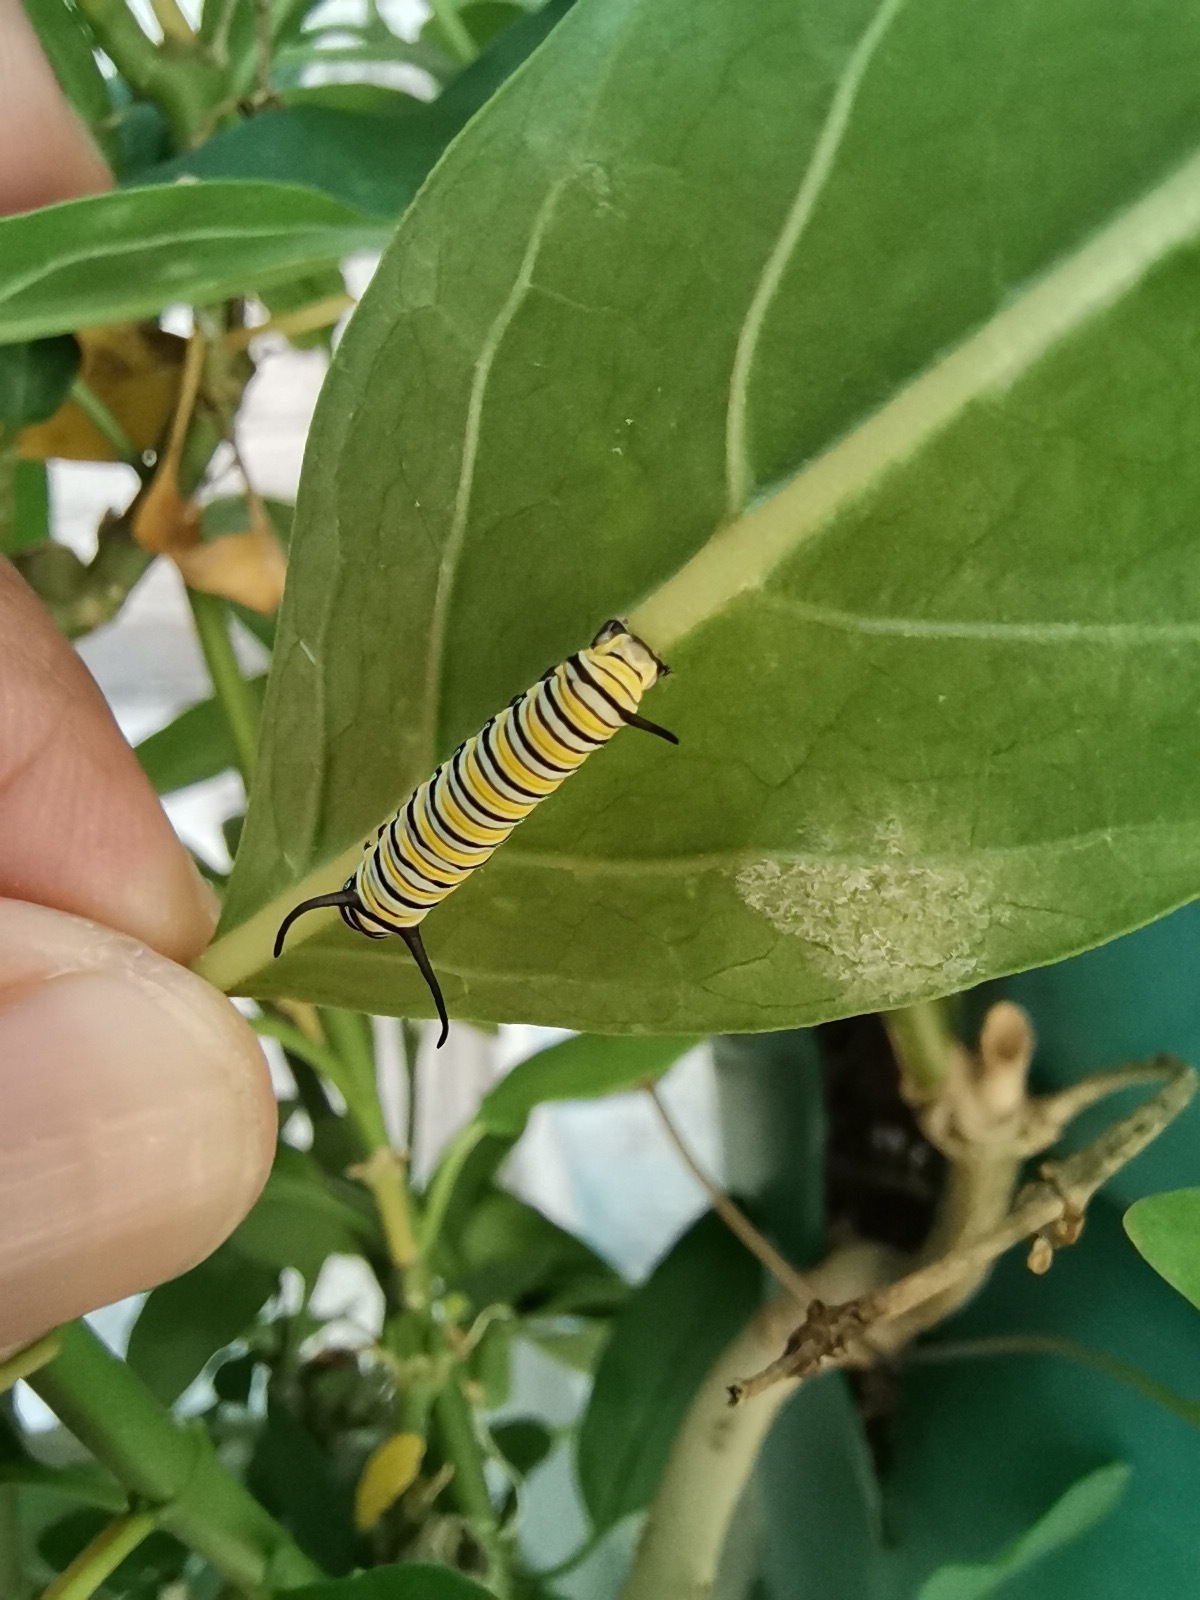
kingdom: Animalia
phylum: Arthropoda
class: Insecta
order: Lepidoptera
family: Nymphalidae
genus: Danaus
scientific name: Danaus plexippus
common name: Monarch
